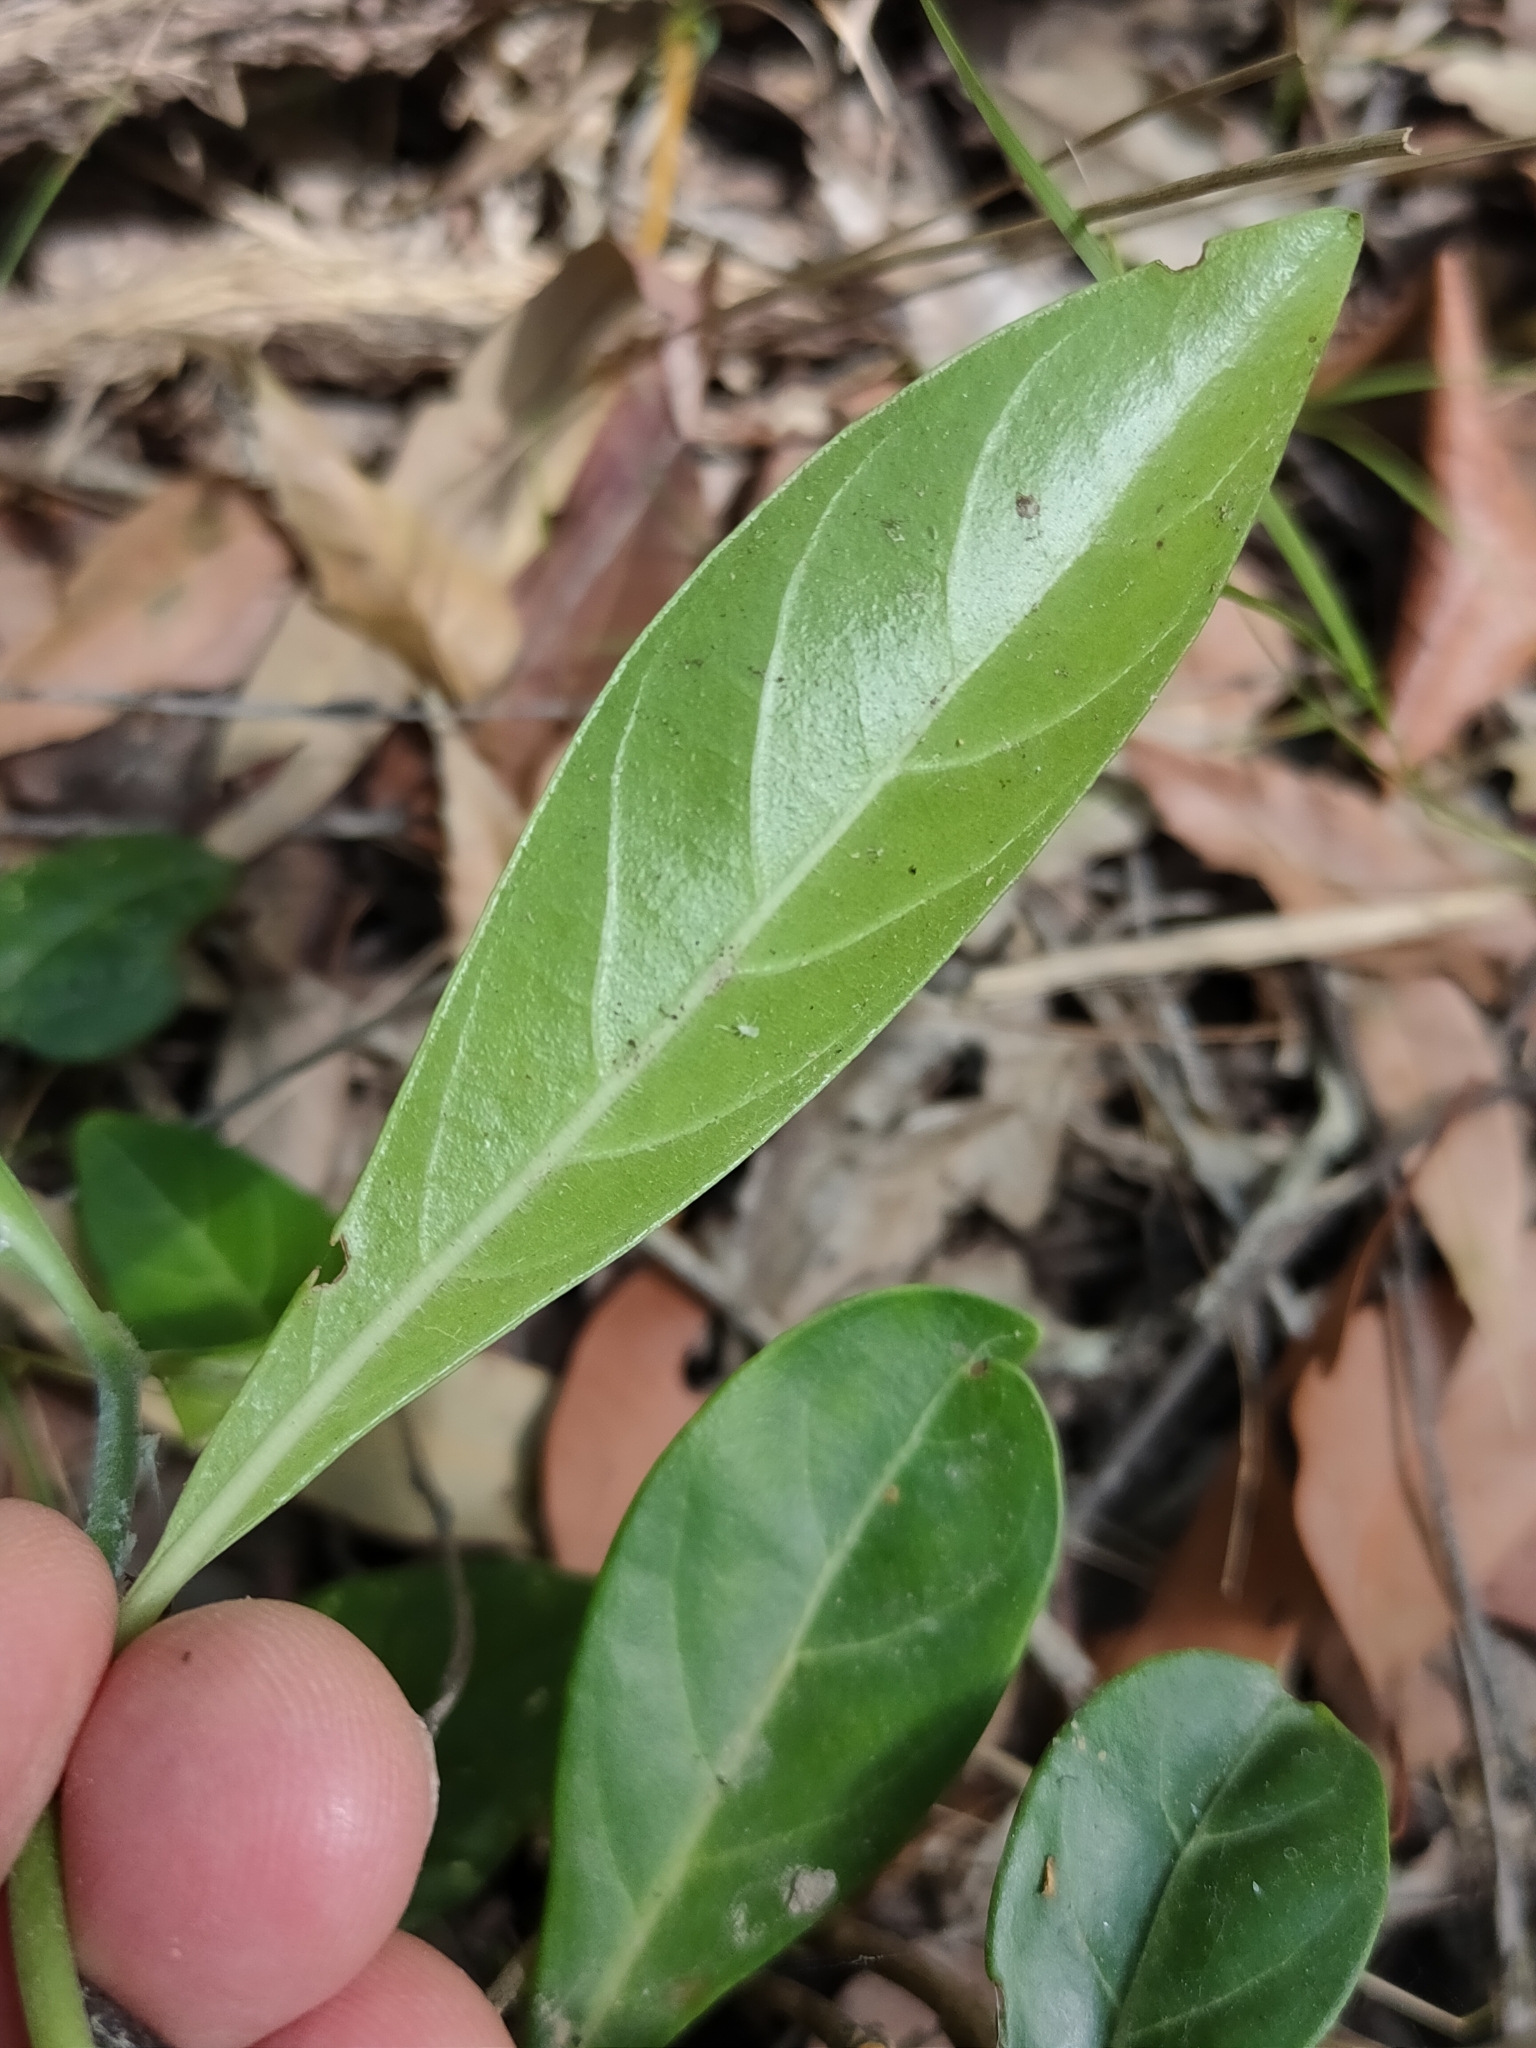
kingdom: Plantae
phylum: Tracheophyta
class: Magnoliopsida
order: Gentianales
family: Rubiaceae
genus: Psychotria
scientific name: Psychotria daphnoides
